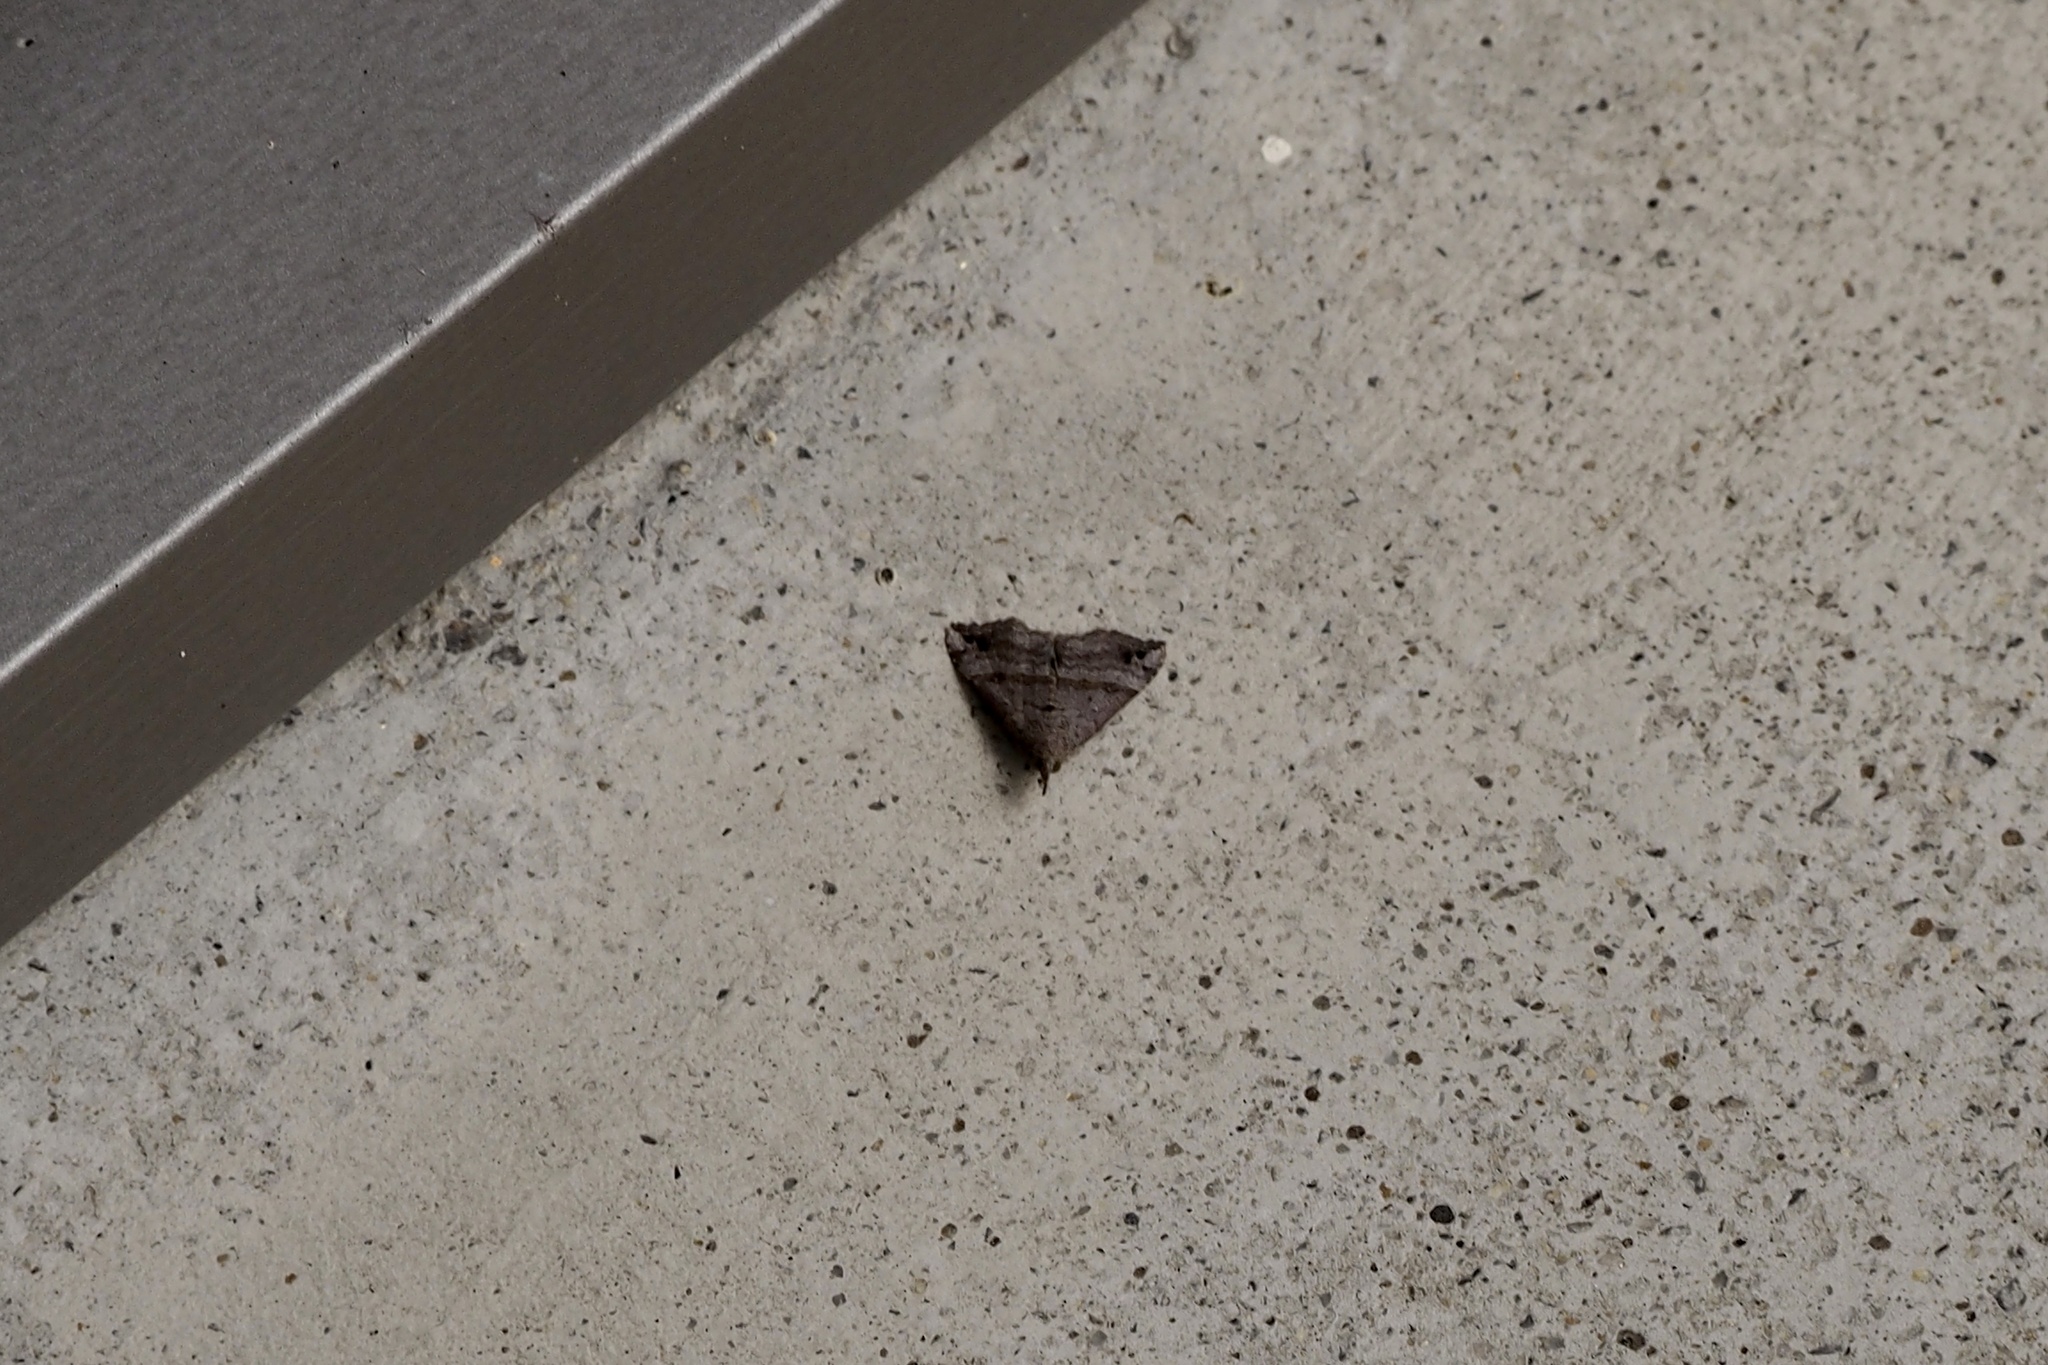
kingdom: Animalia
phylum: Arthropoda
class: Insecta
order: Lepidoptera
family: Erebidae
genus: Hypena
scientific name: Hypena
